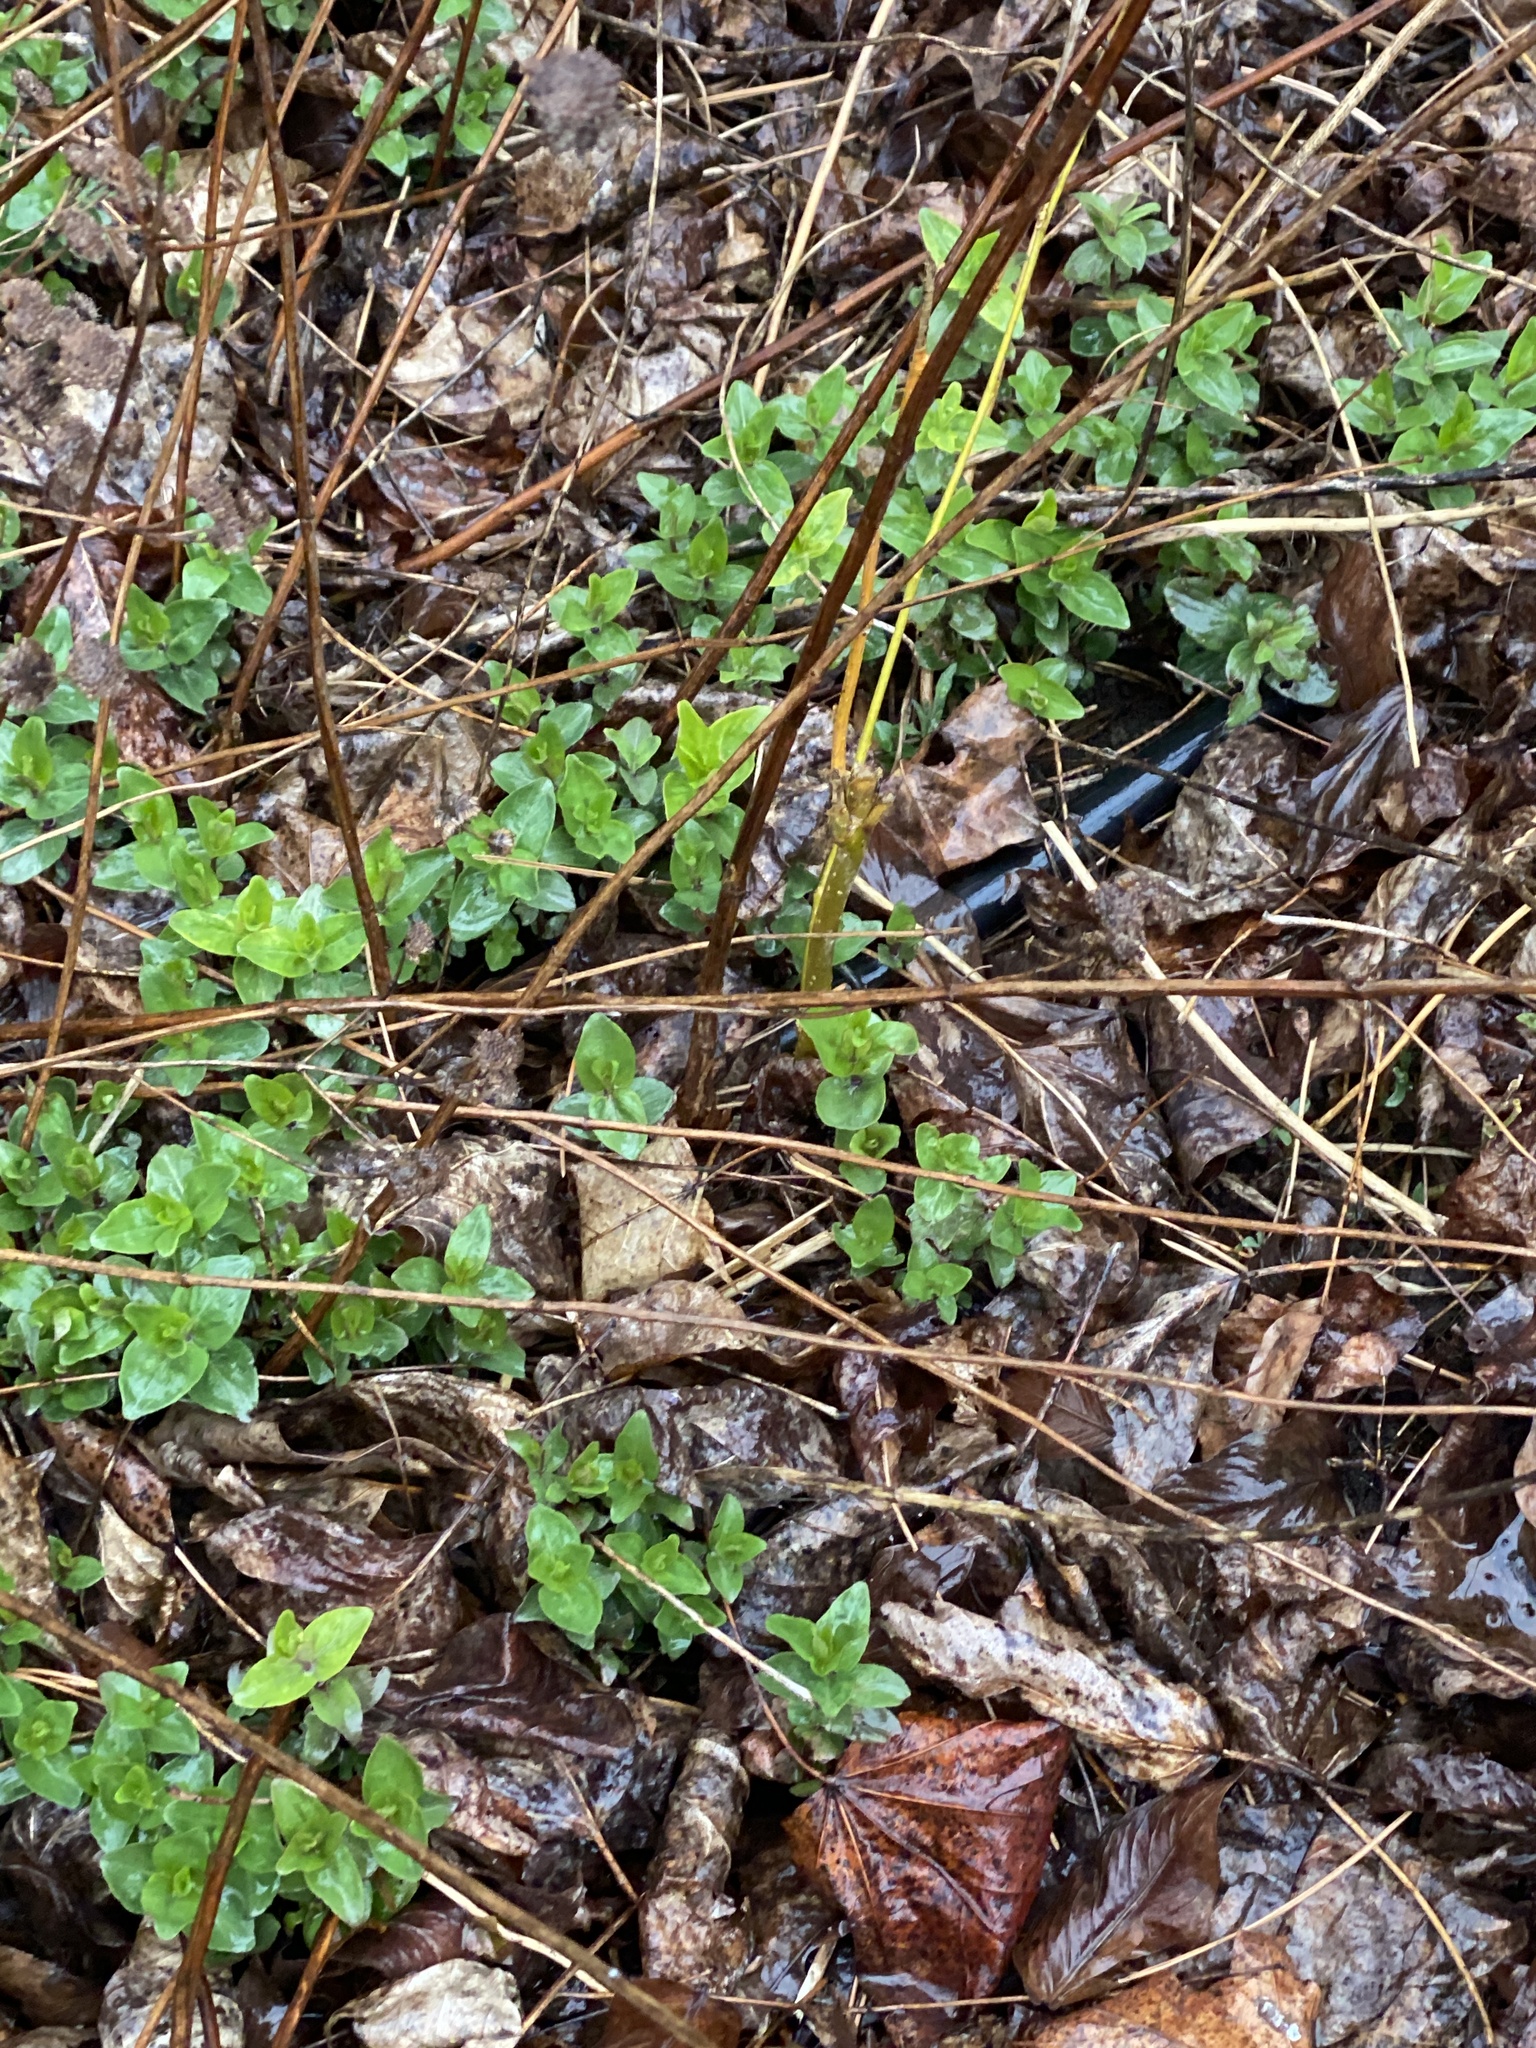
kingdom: Plantae
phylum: Tracheophyta
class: Magnoliopsida
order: Lamiales
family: Lamiaceae
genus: Pycnanthemum
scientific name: Pycnanthemum muticum
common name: Blunt mountain-mint
